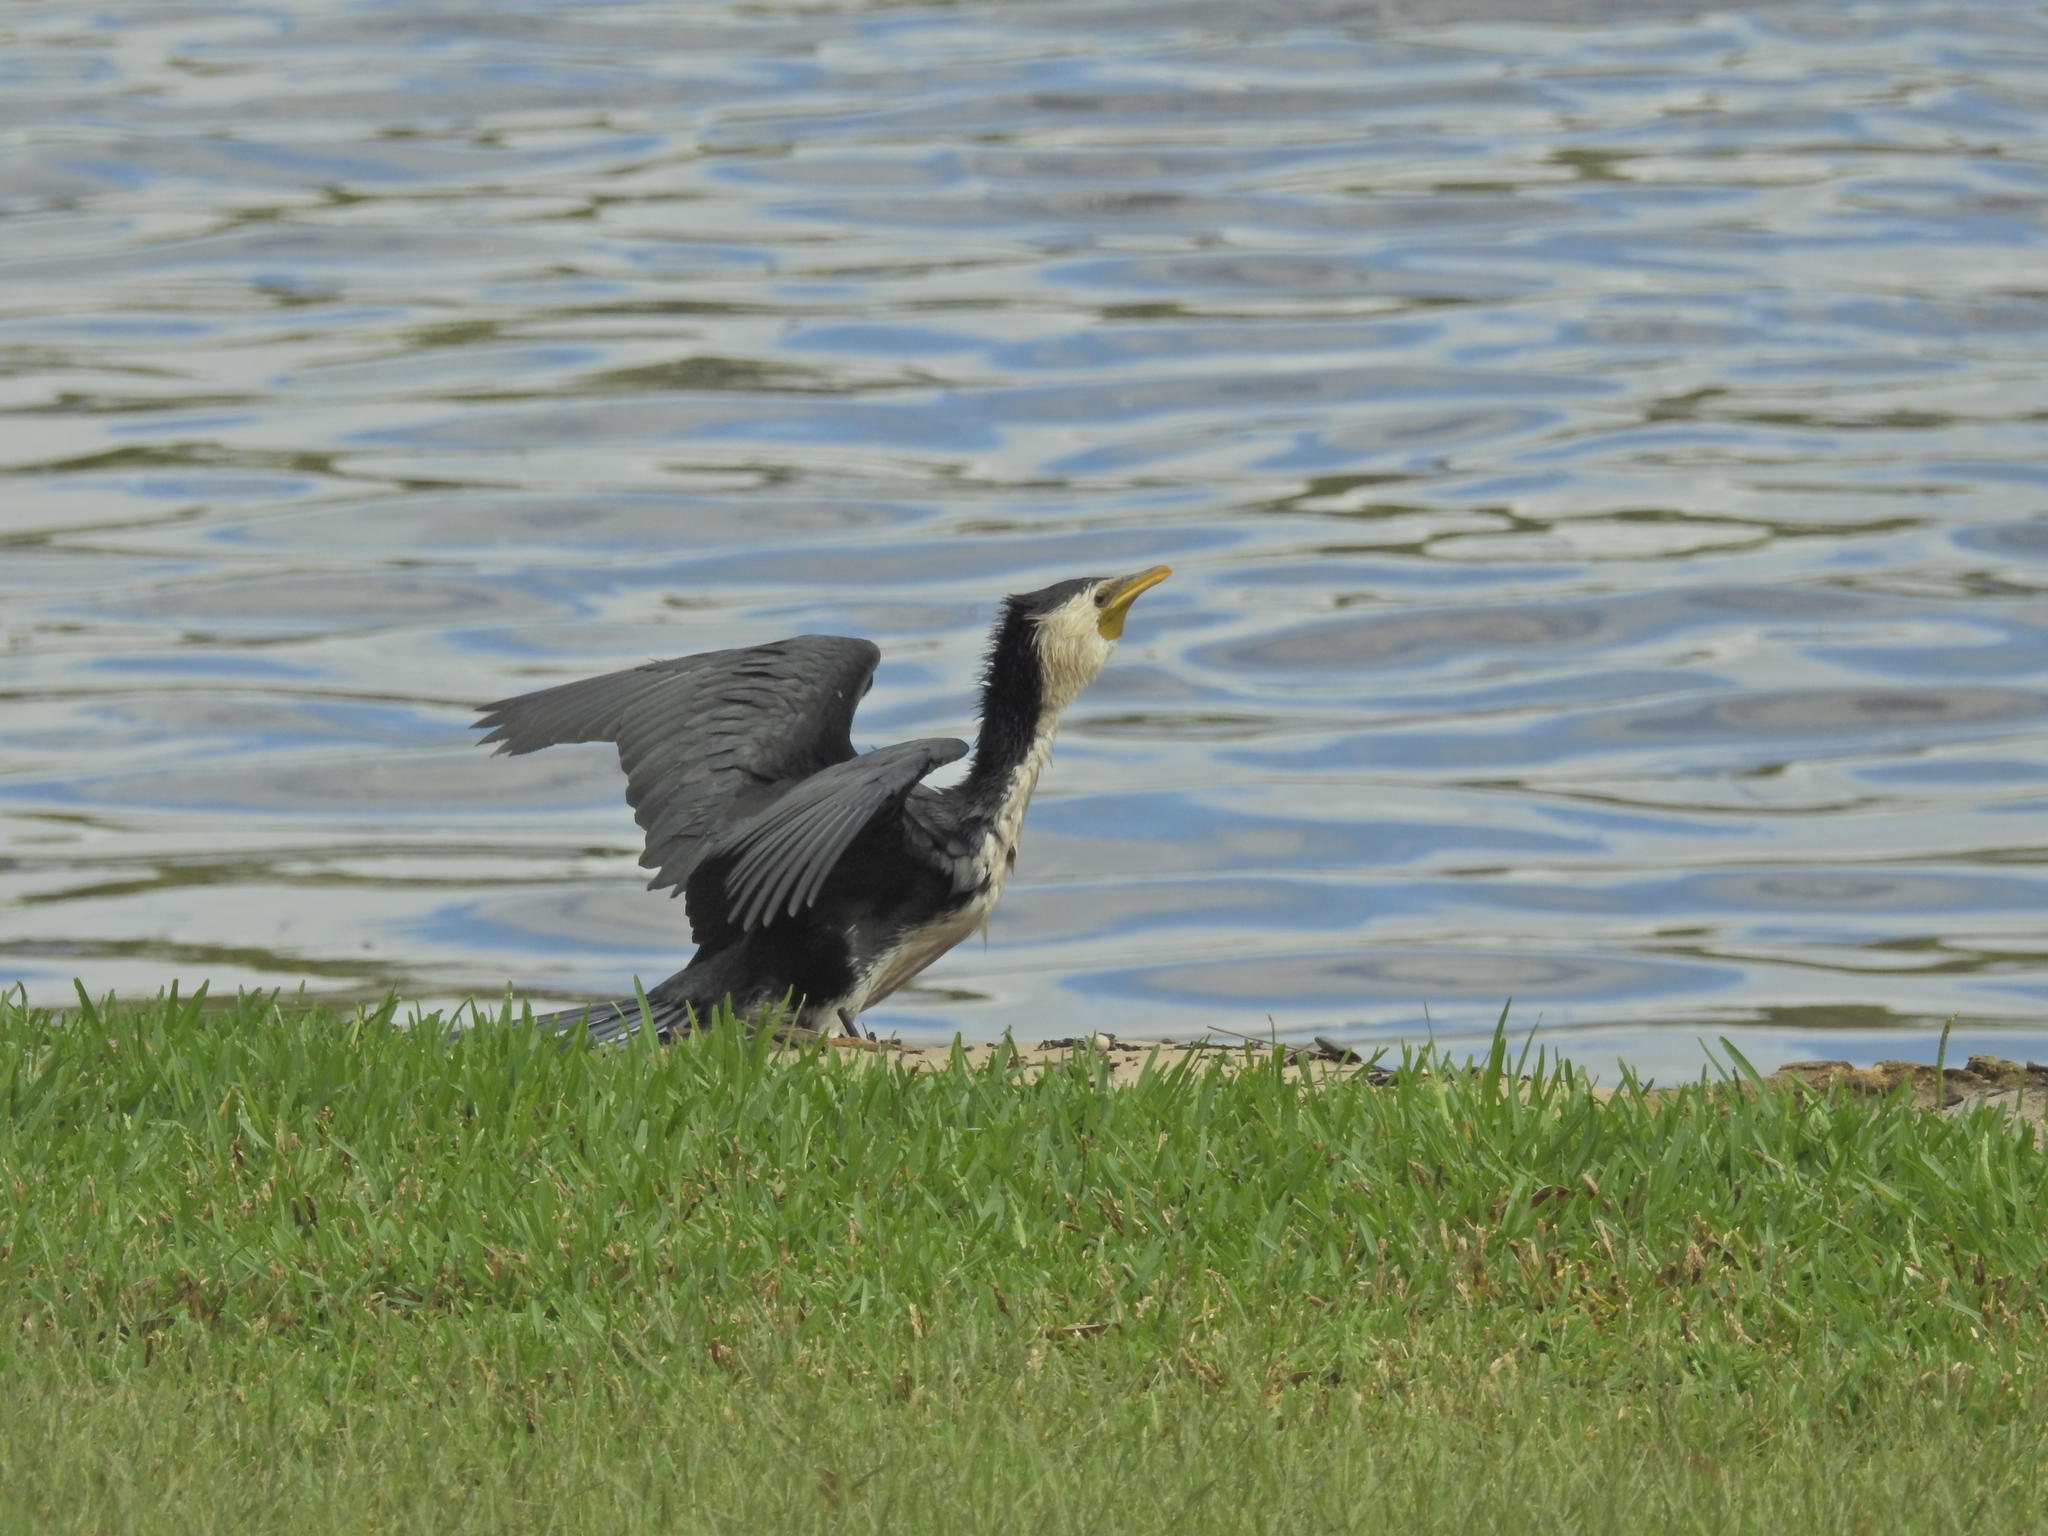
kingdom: Animalia
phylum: Chordata
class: Aves
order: Suliformes
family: Phalacrocoracidae
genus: Microcarbo
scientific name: Microcarbo melanoleucos
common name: Little pied cormorant
